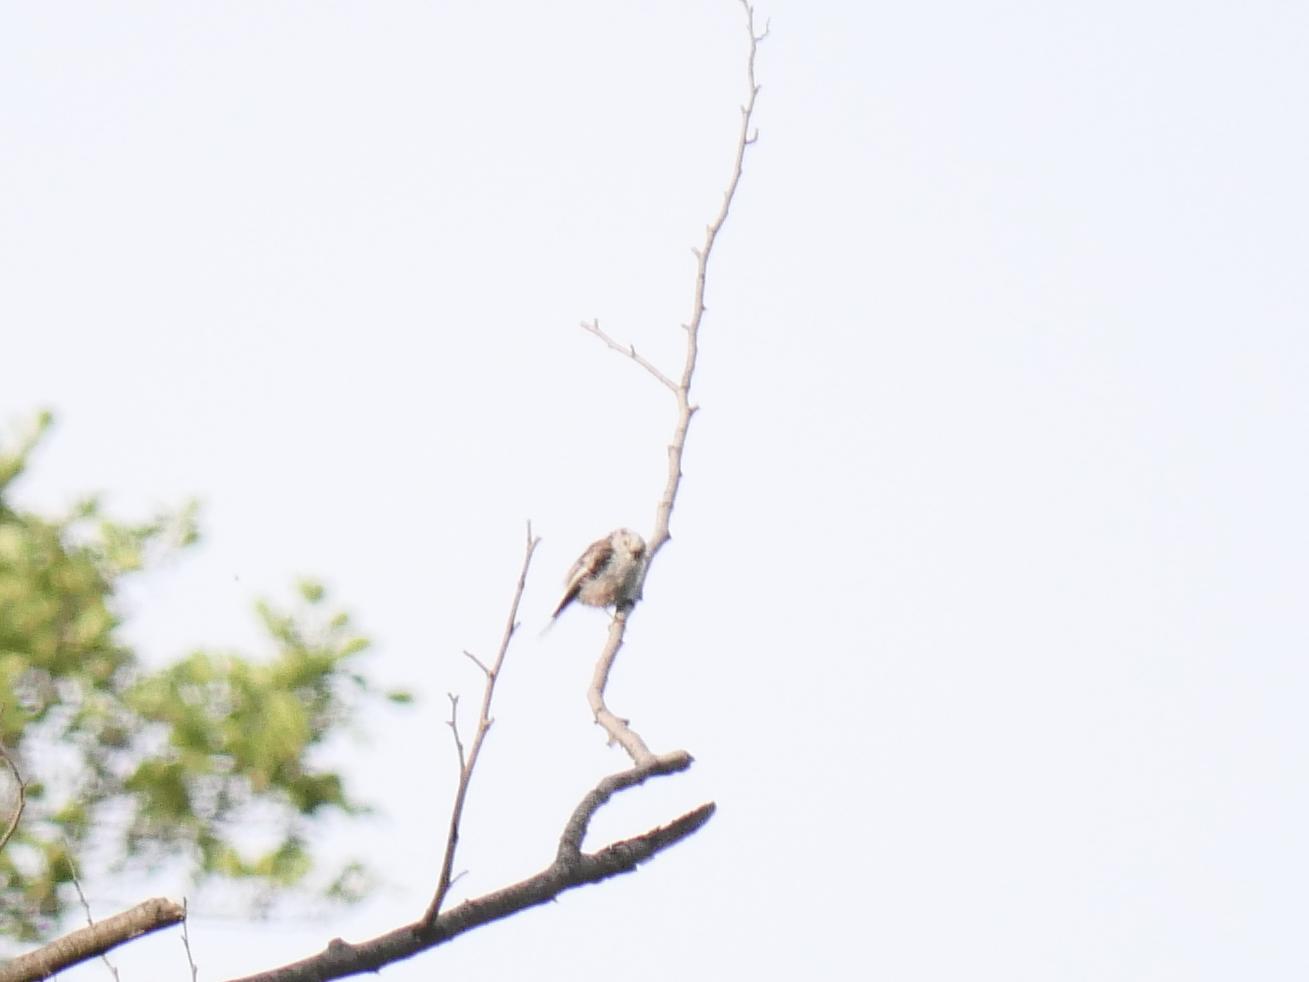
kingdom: Animalia
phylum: Chordata
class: Aves
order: Passeriformes
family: Aegithalidae
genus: Aegithalos
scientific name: Aegithalos caudatus
